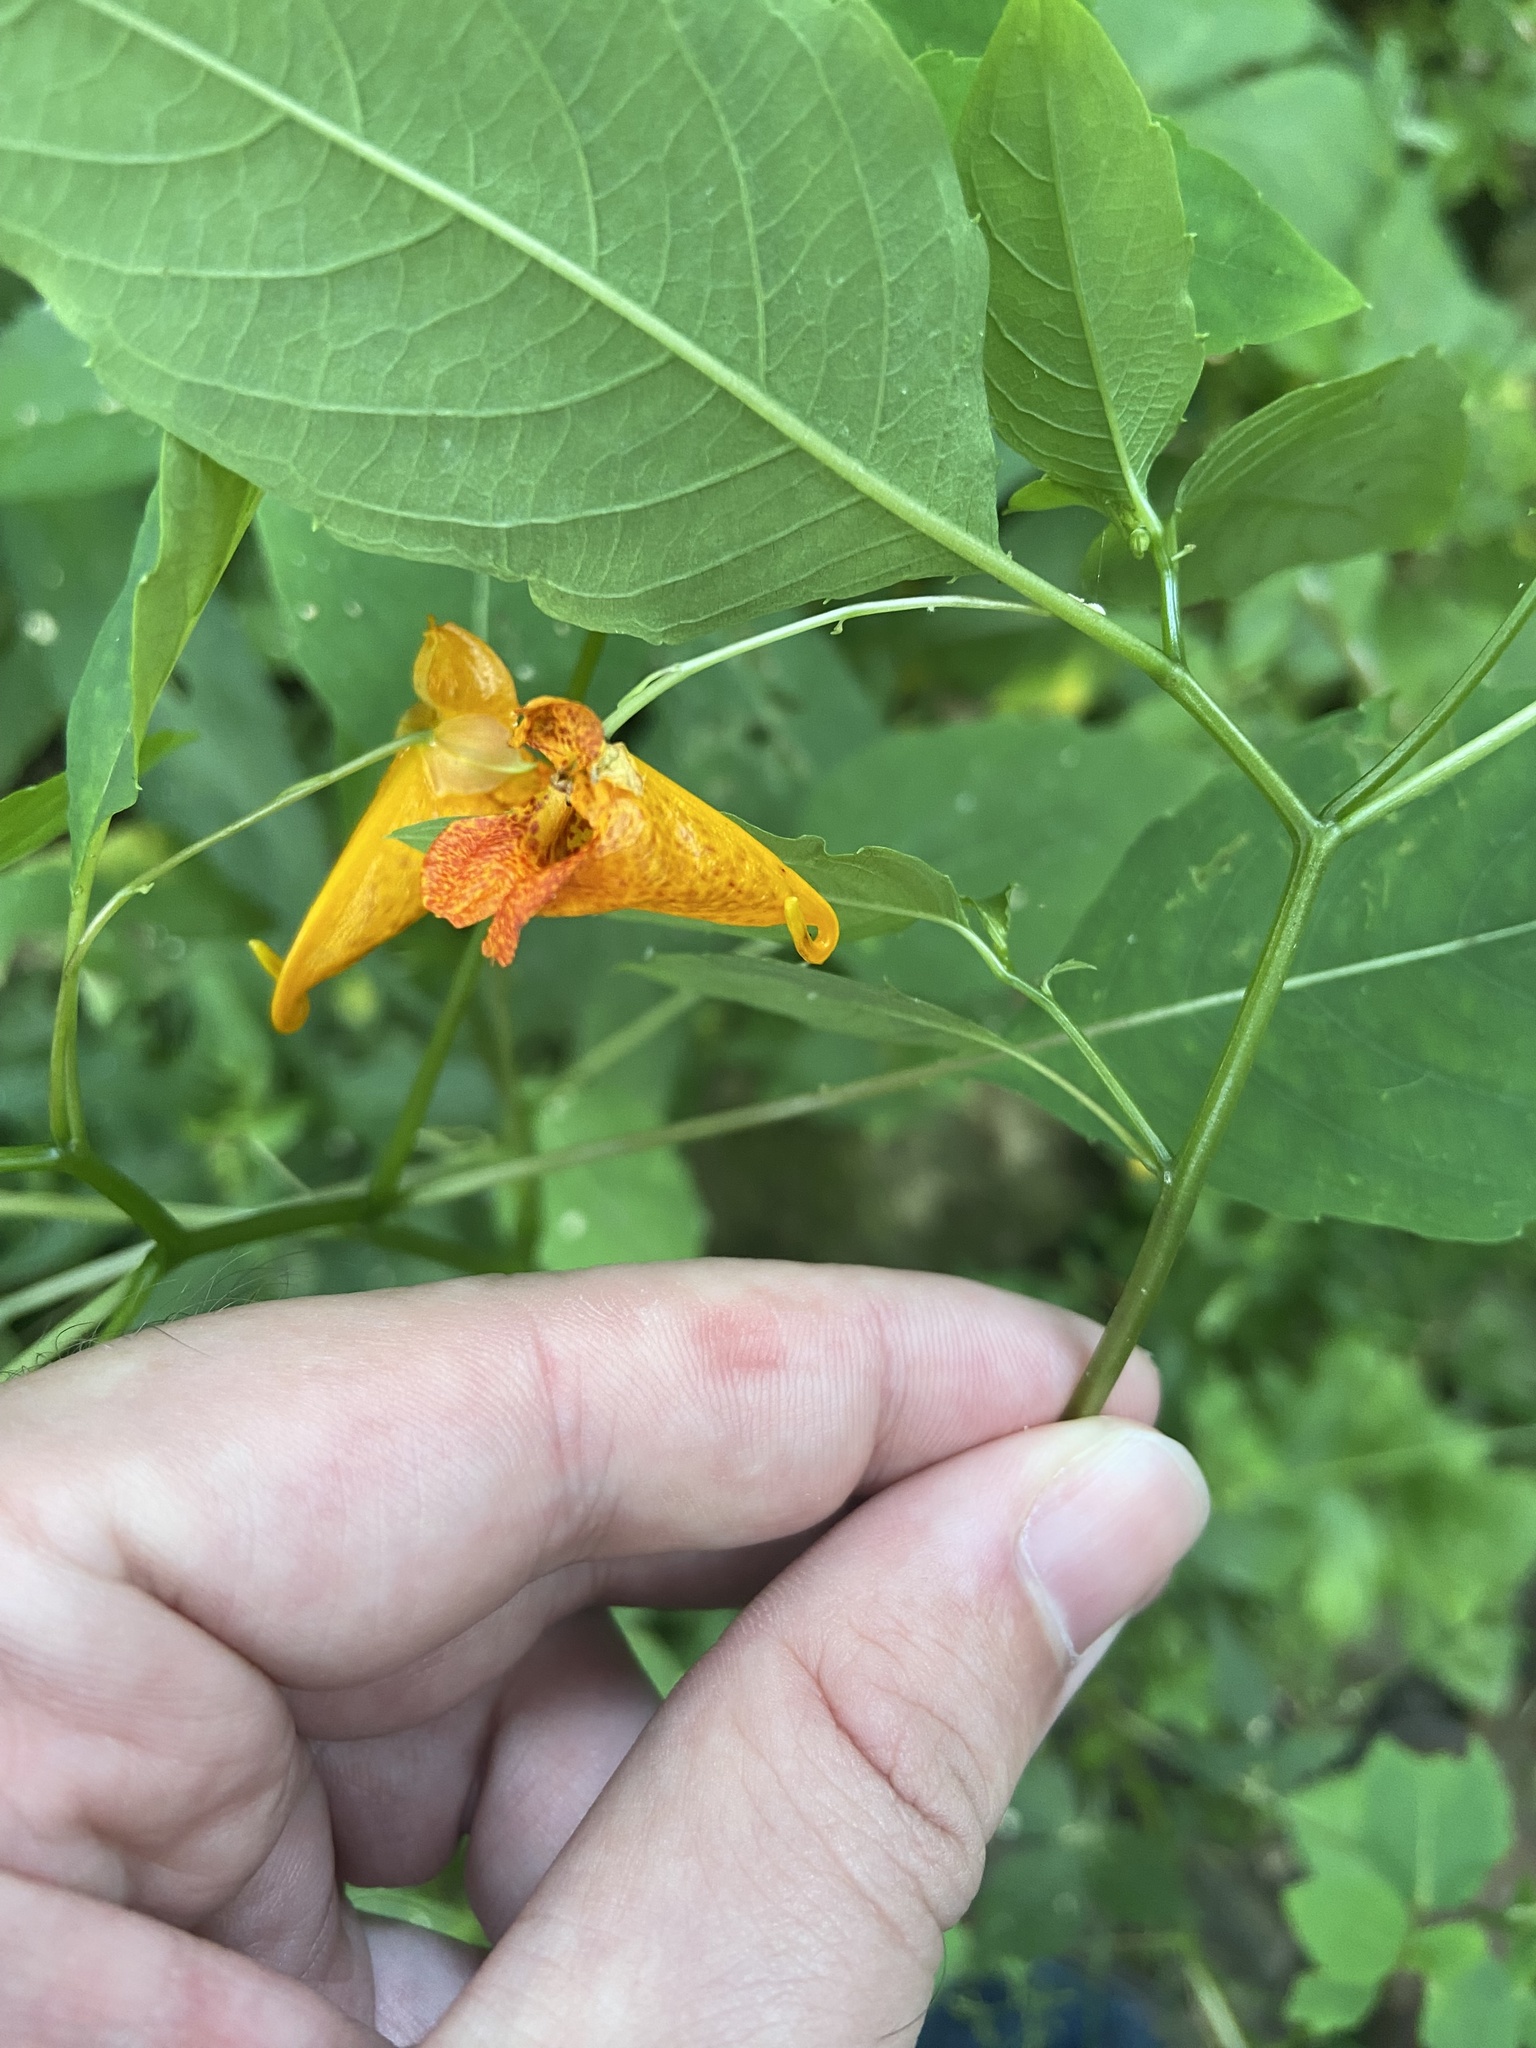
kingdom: Plantae
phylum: Tracheophyta
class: Magnoliopsida
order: Ericales
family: Balsaminaceae
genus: Impatiens
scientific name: Impatiens capensis
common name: Orange balsam
